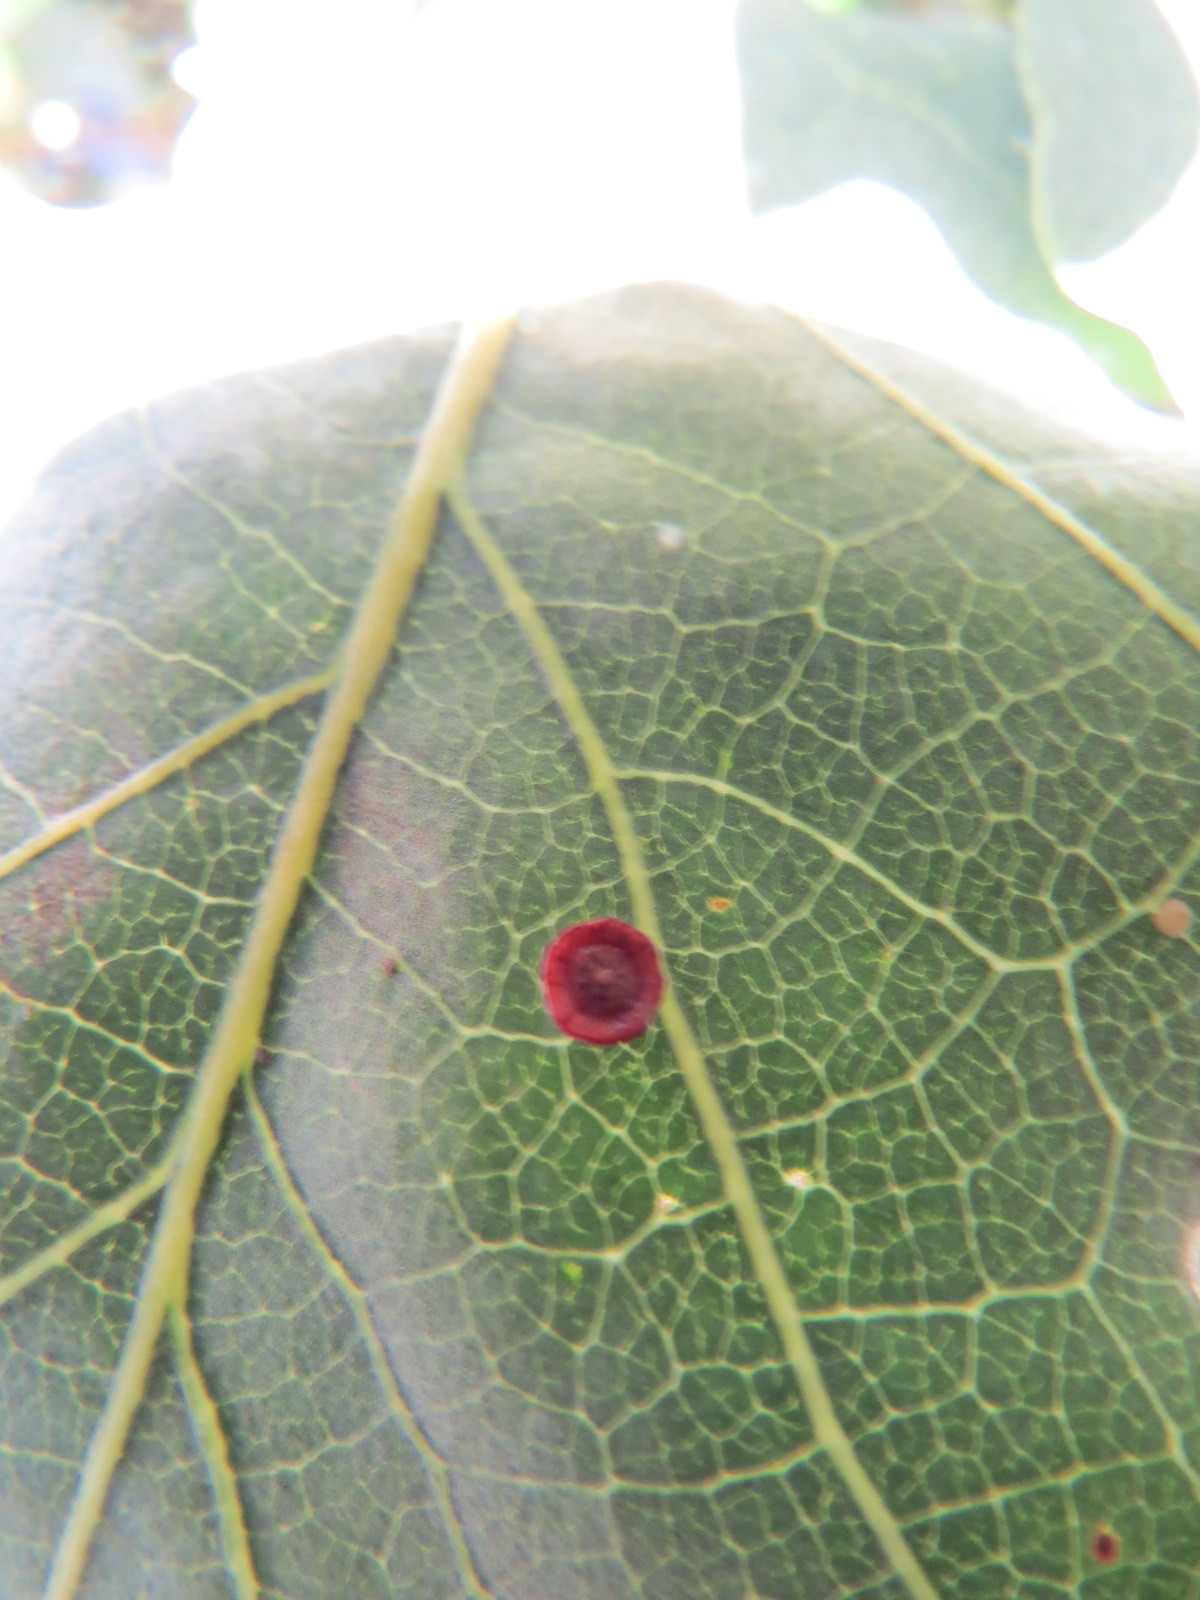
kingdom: Animalia
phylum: Arthropoda
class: Insecta
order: Hymenoptera
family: Cynipidae
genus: Andricus
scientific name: Andricus
